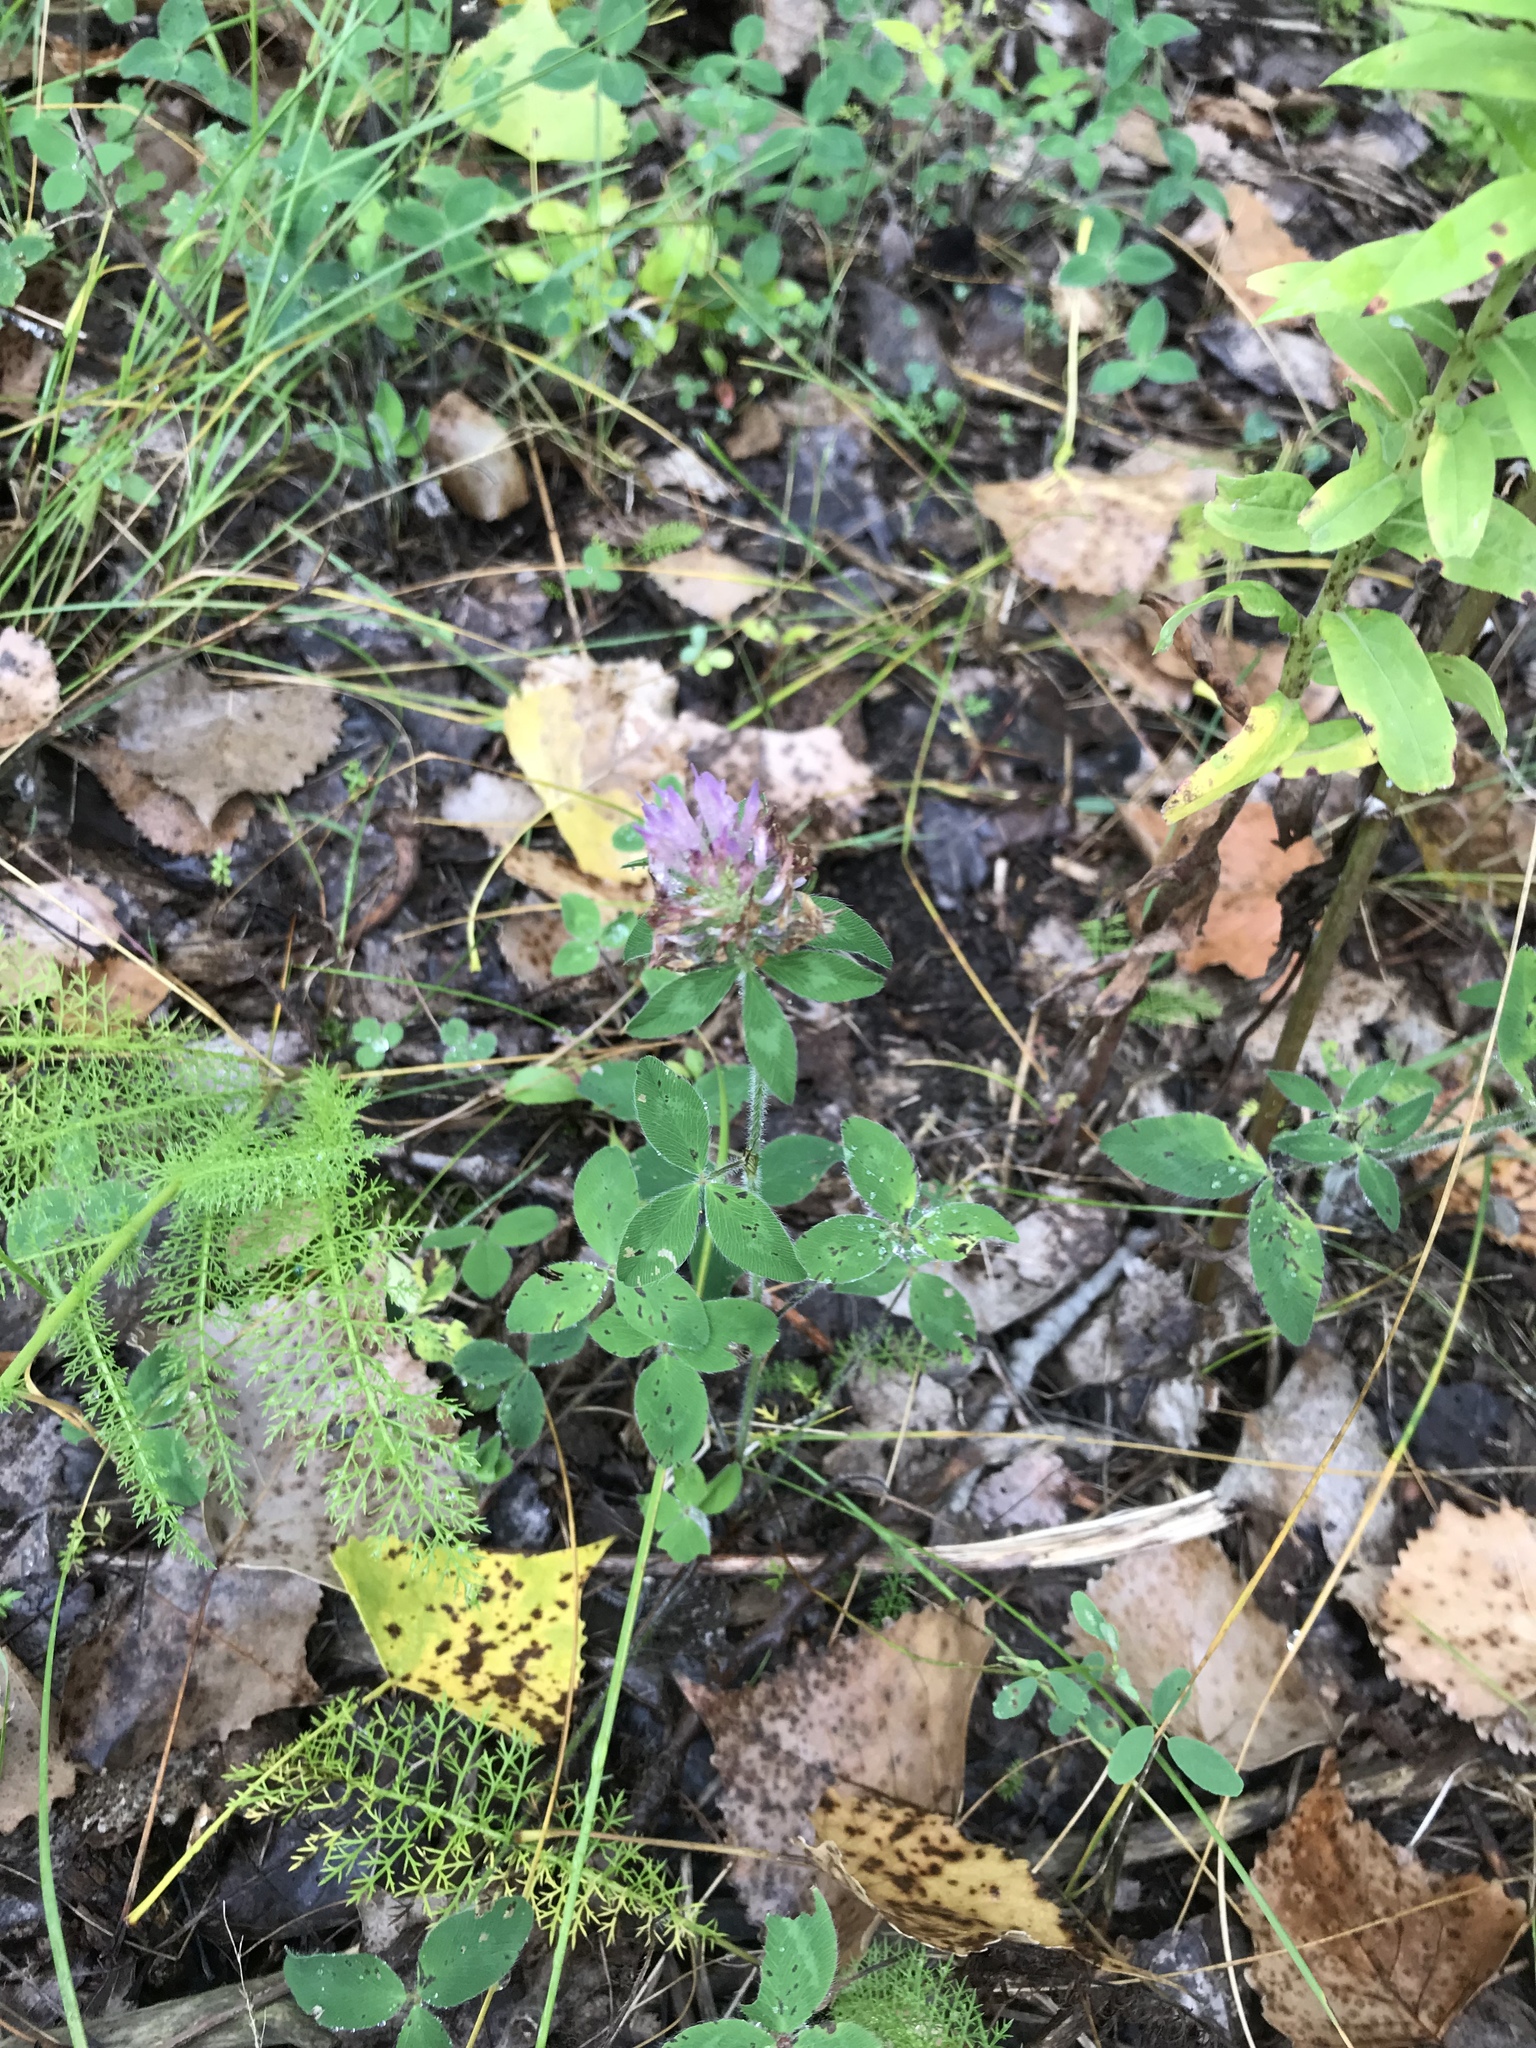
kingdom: Plantae
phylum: Tracheophyta
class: Magnoliopsida
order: Fabales
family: Fabaceae
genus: Trifolium
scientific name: Trifolium pratense
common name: Red clover
